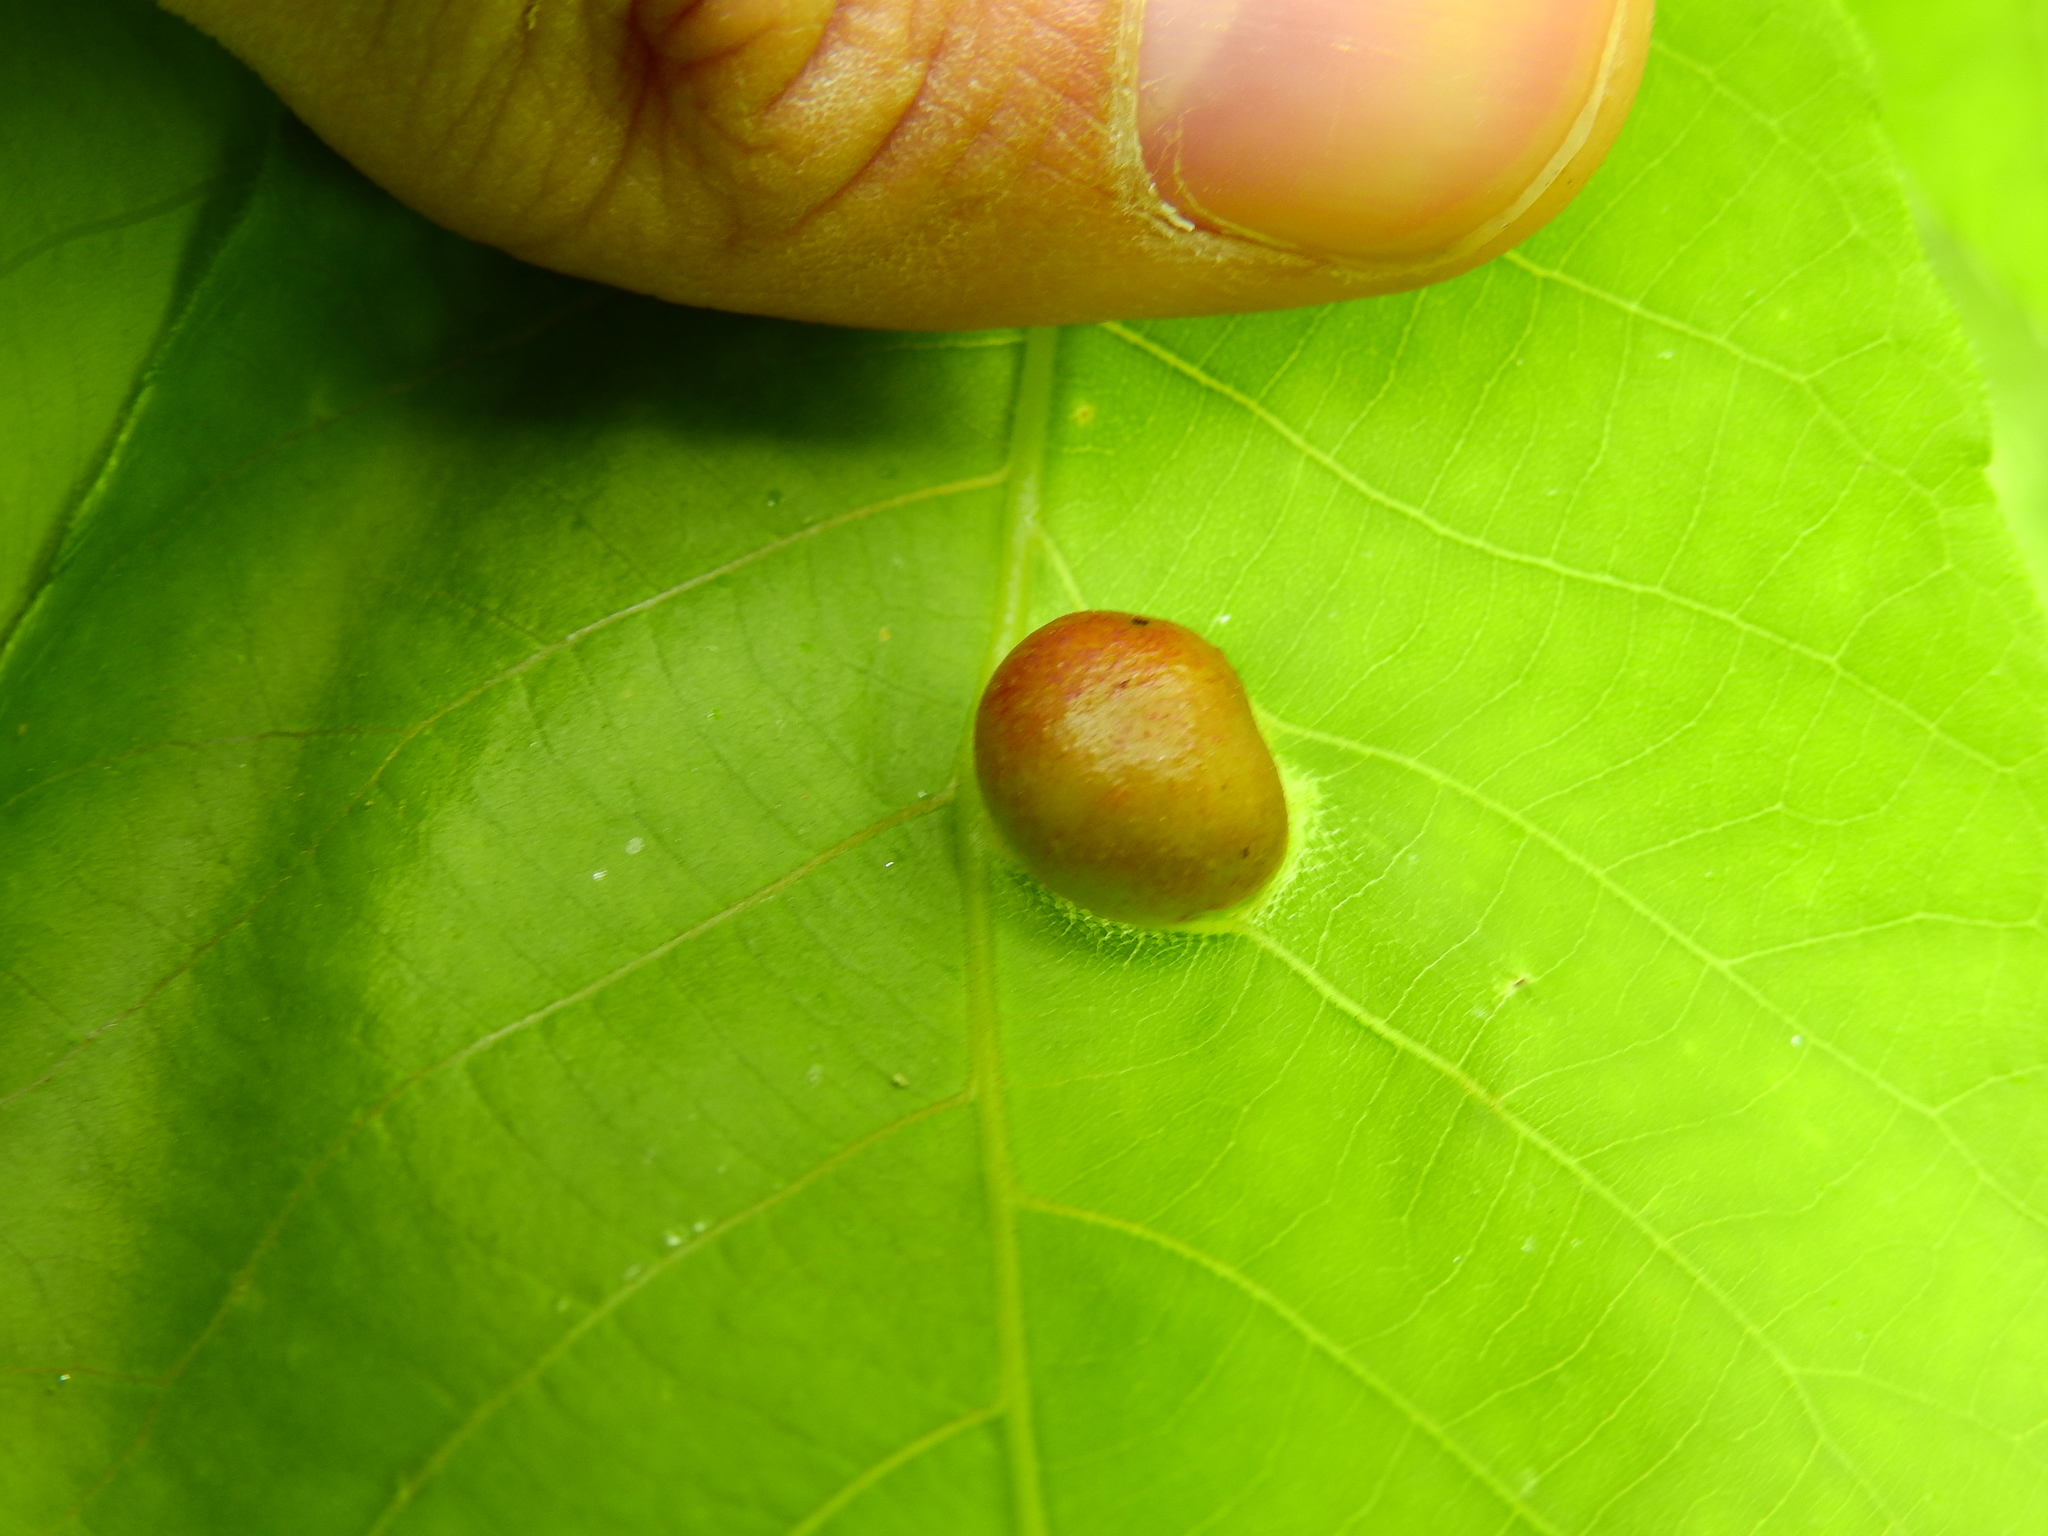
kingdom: Animalia
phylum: Arthropoda
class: Insecta
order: Hemiptera
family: Phylloxeridae
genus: Phylloxera
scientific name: Phylloxera caryae-globuli
